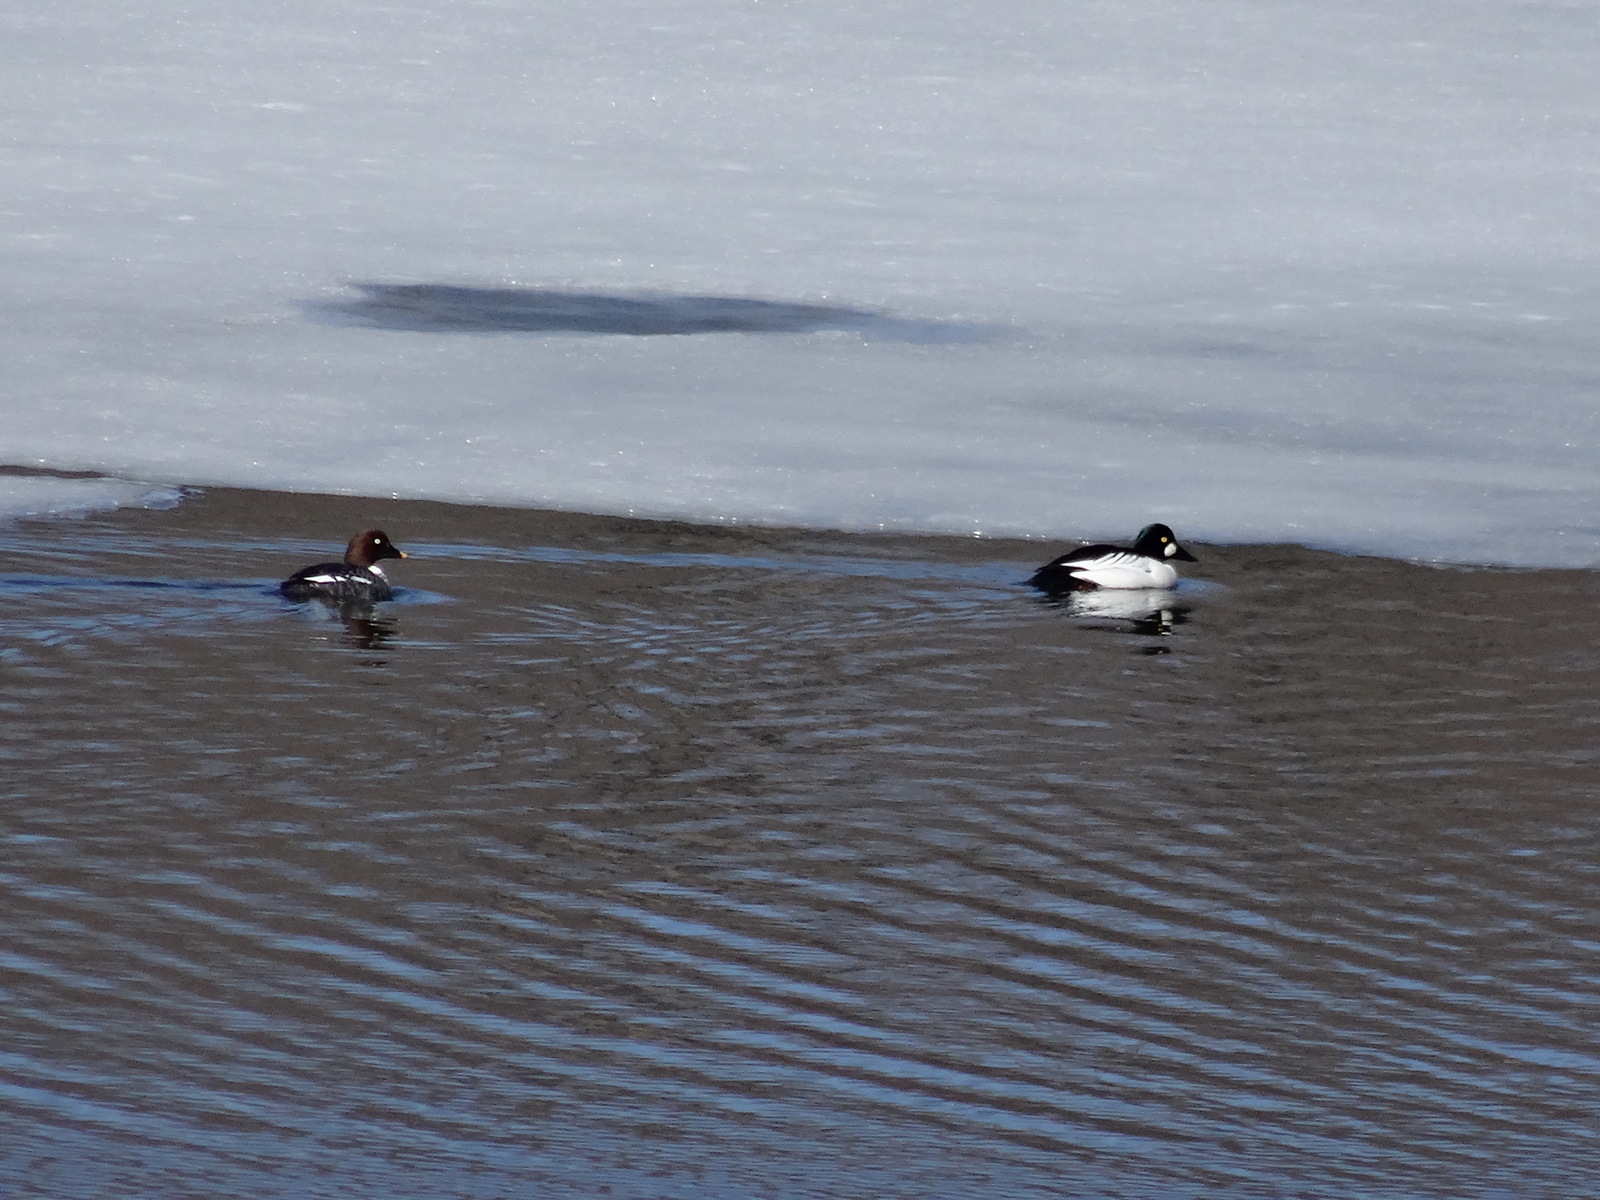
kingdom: Animalia
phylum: Chordata
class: Aves
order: Anseriformes
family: Anatidae
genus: Bucephala
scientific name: Bucephala clangula
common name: Common goldeneye
